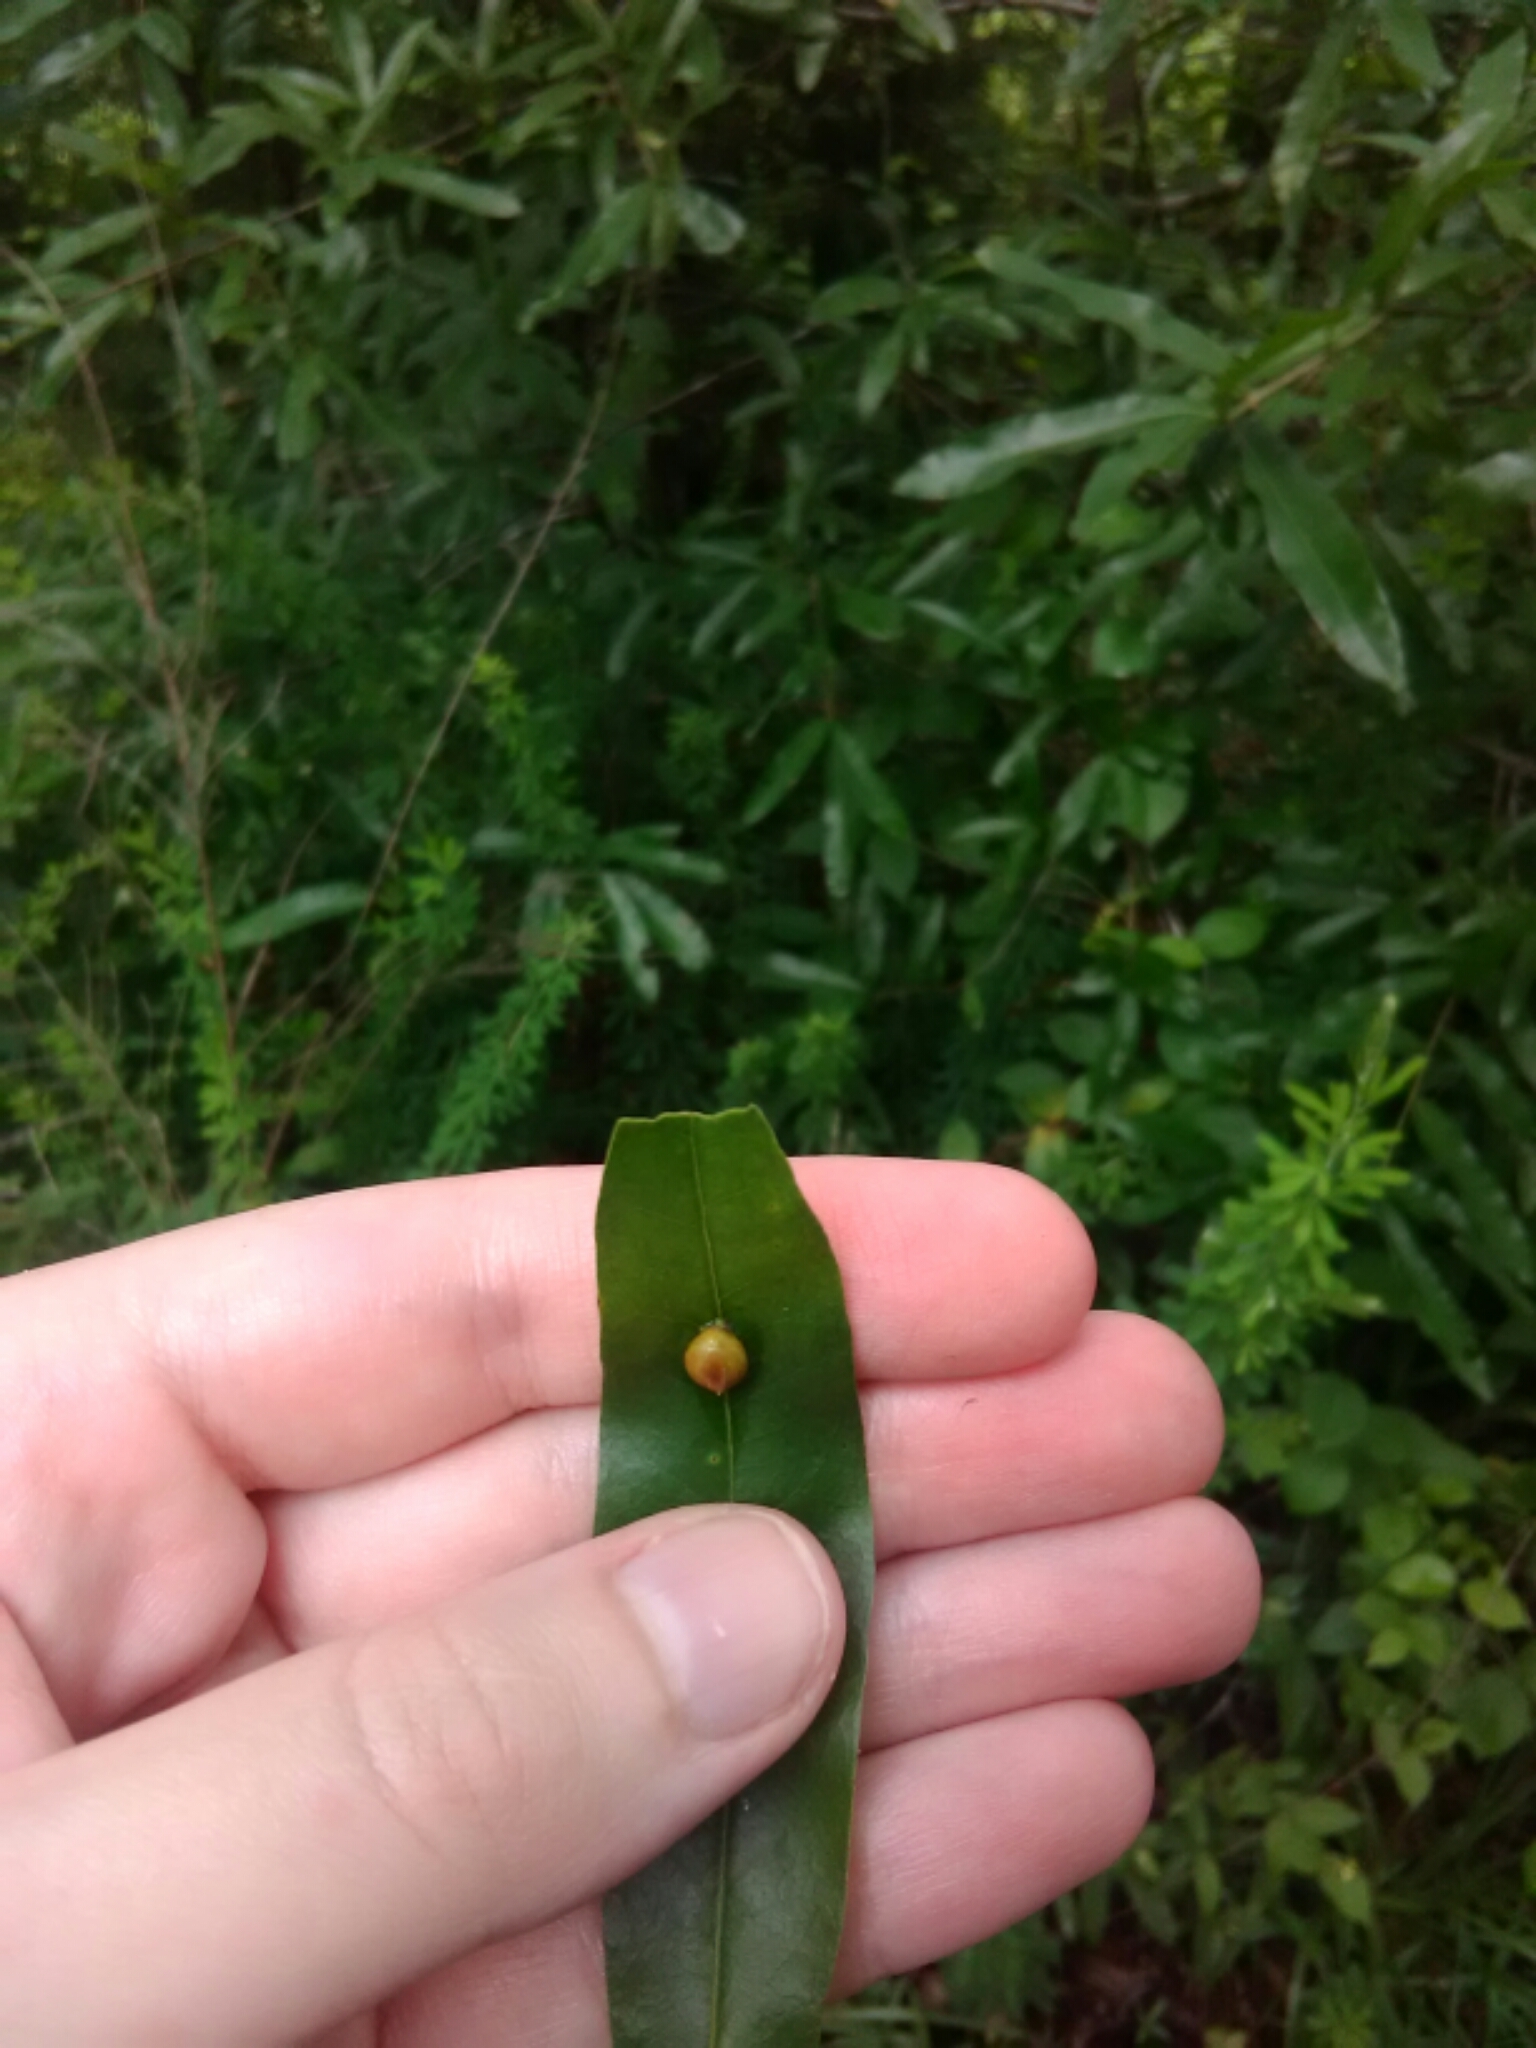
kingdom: Animalia
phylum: Arthropoda
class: Insecta
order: Diptera
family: Cecidomyiidae
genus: Polystepha
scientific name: Polystepha pilulae
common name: Oak leaf gall midge
